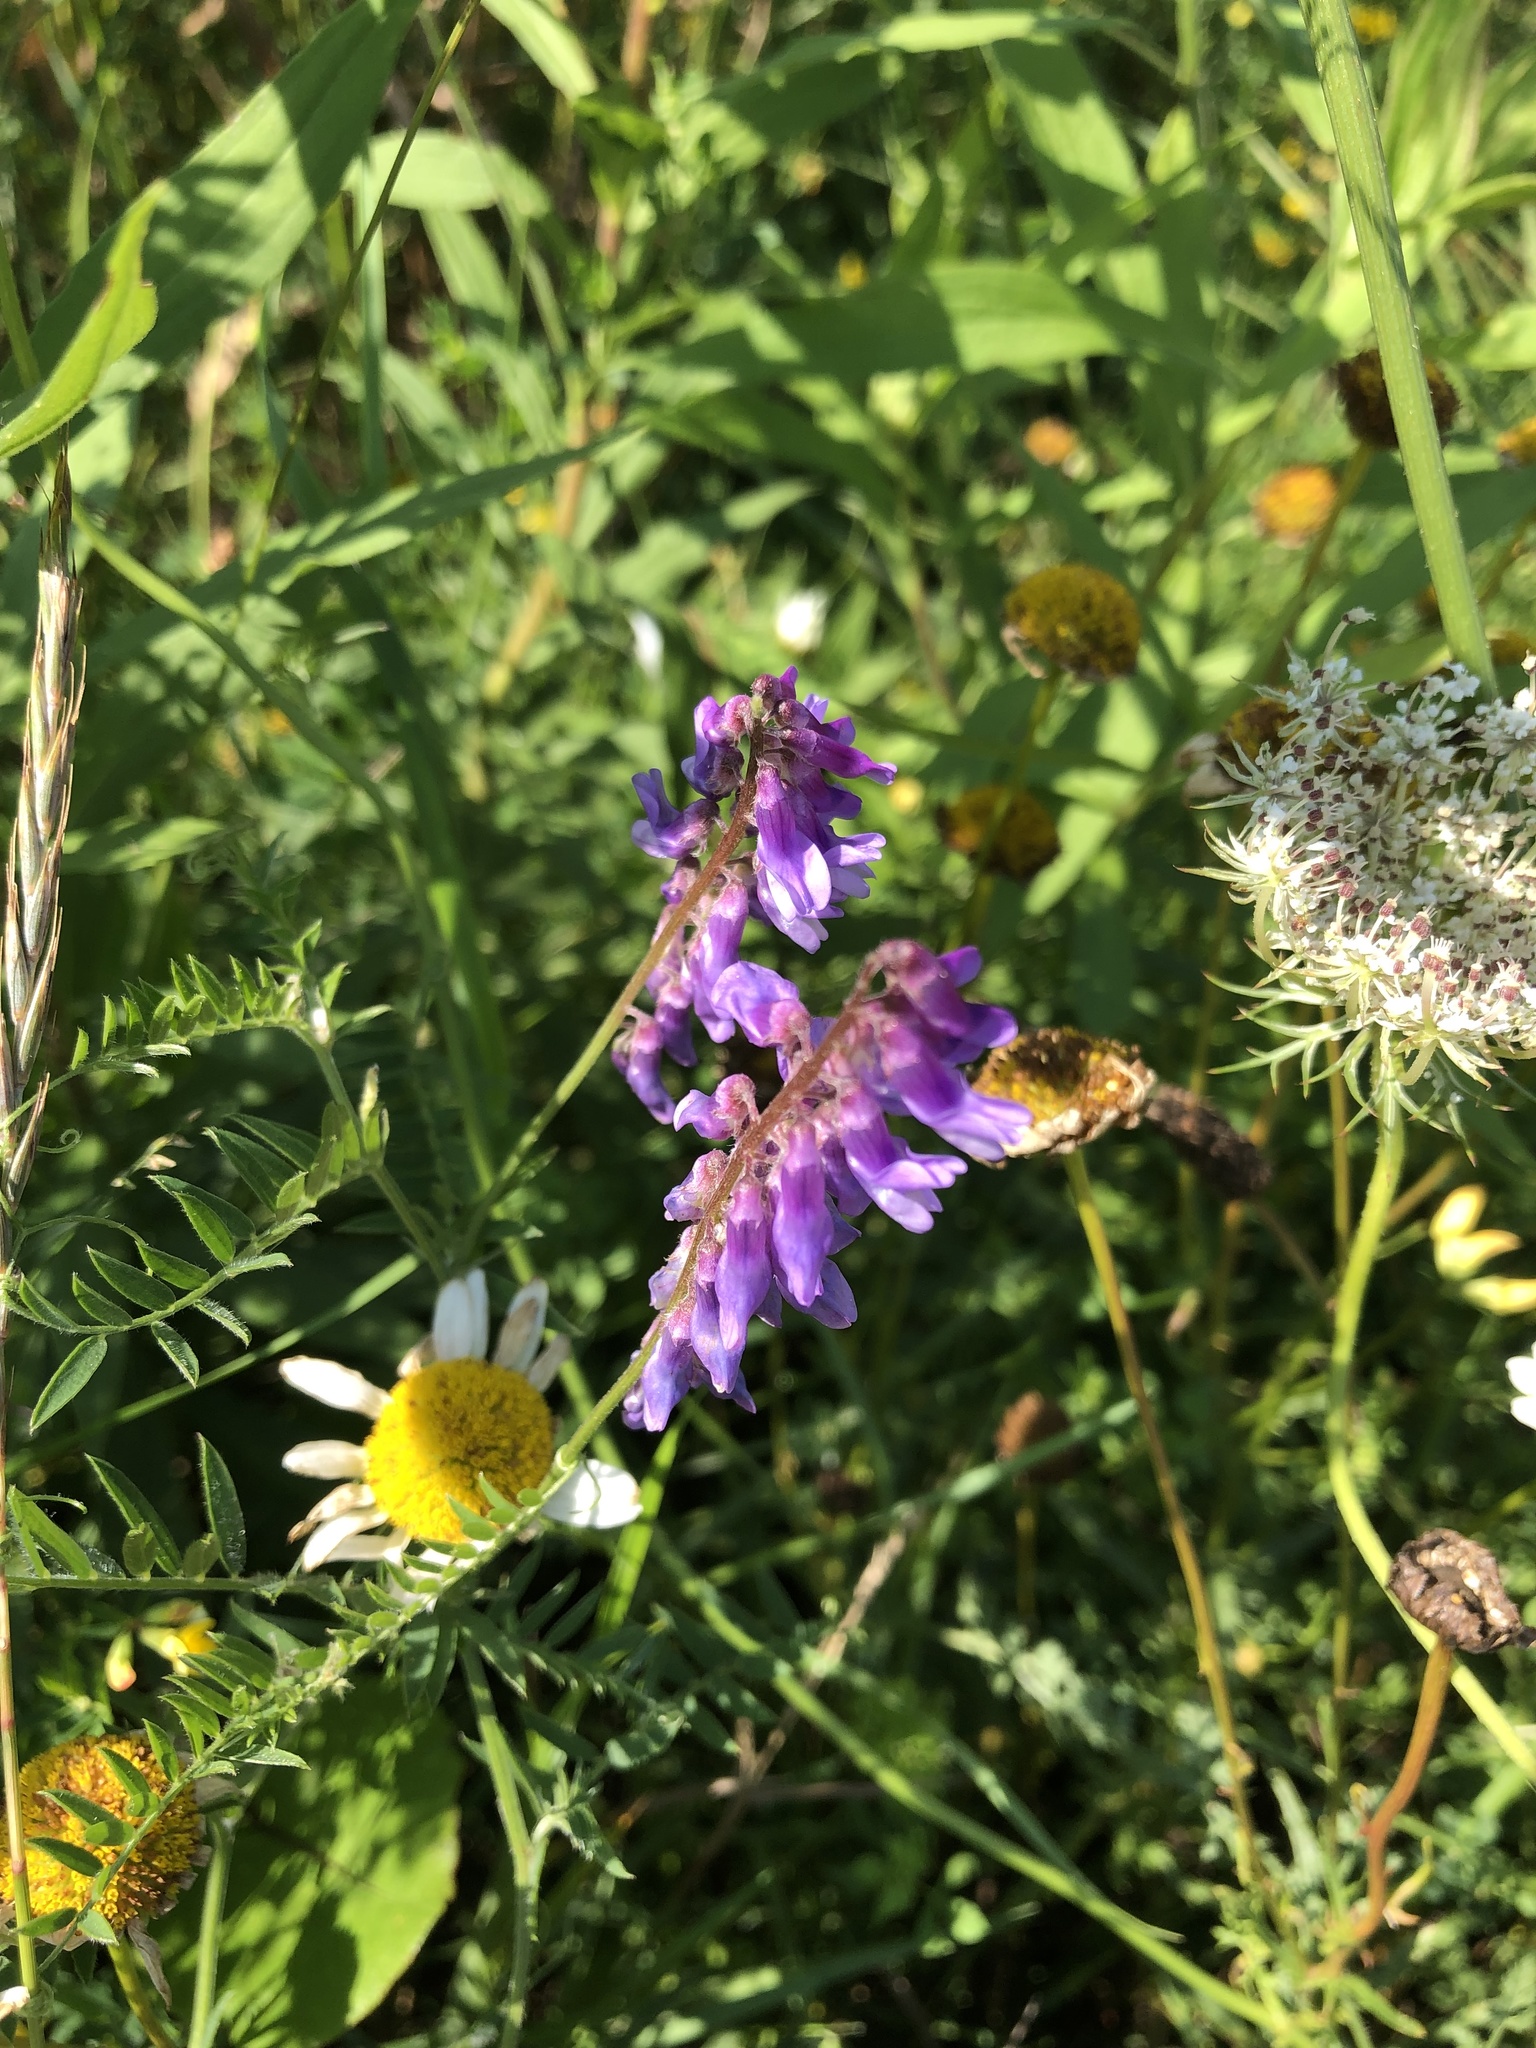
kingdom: Plantae
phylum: Tracheophyta
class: Magnoliopsida
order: Fabales
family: Fabaceae
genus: Vicia
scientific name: Vicia cracca
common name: Bird vetch
